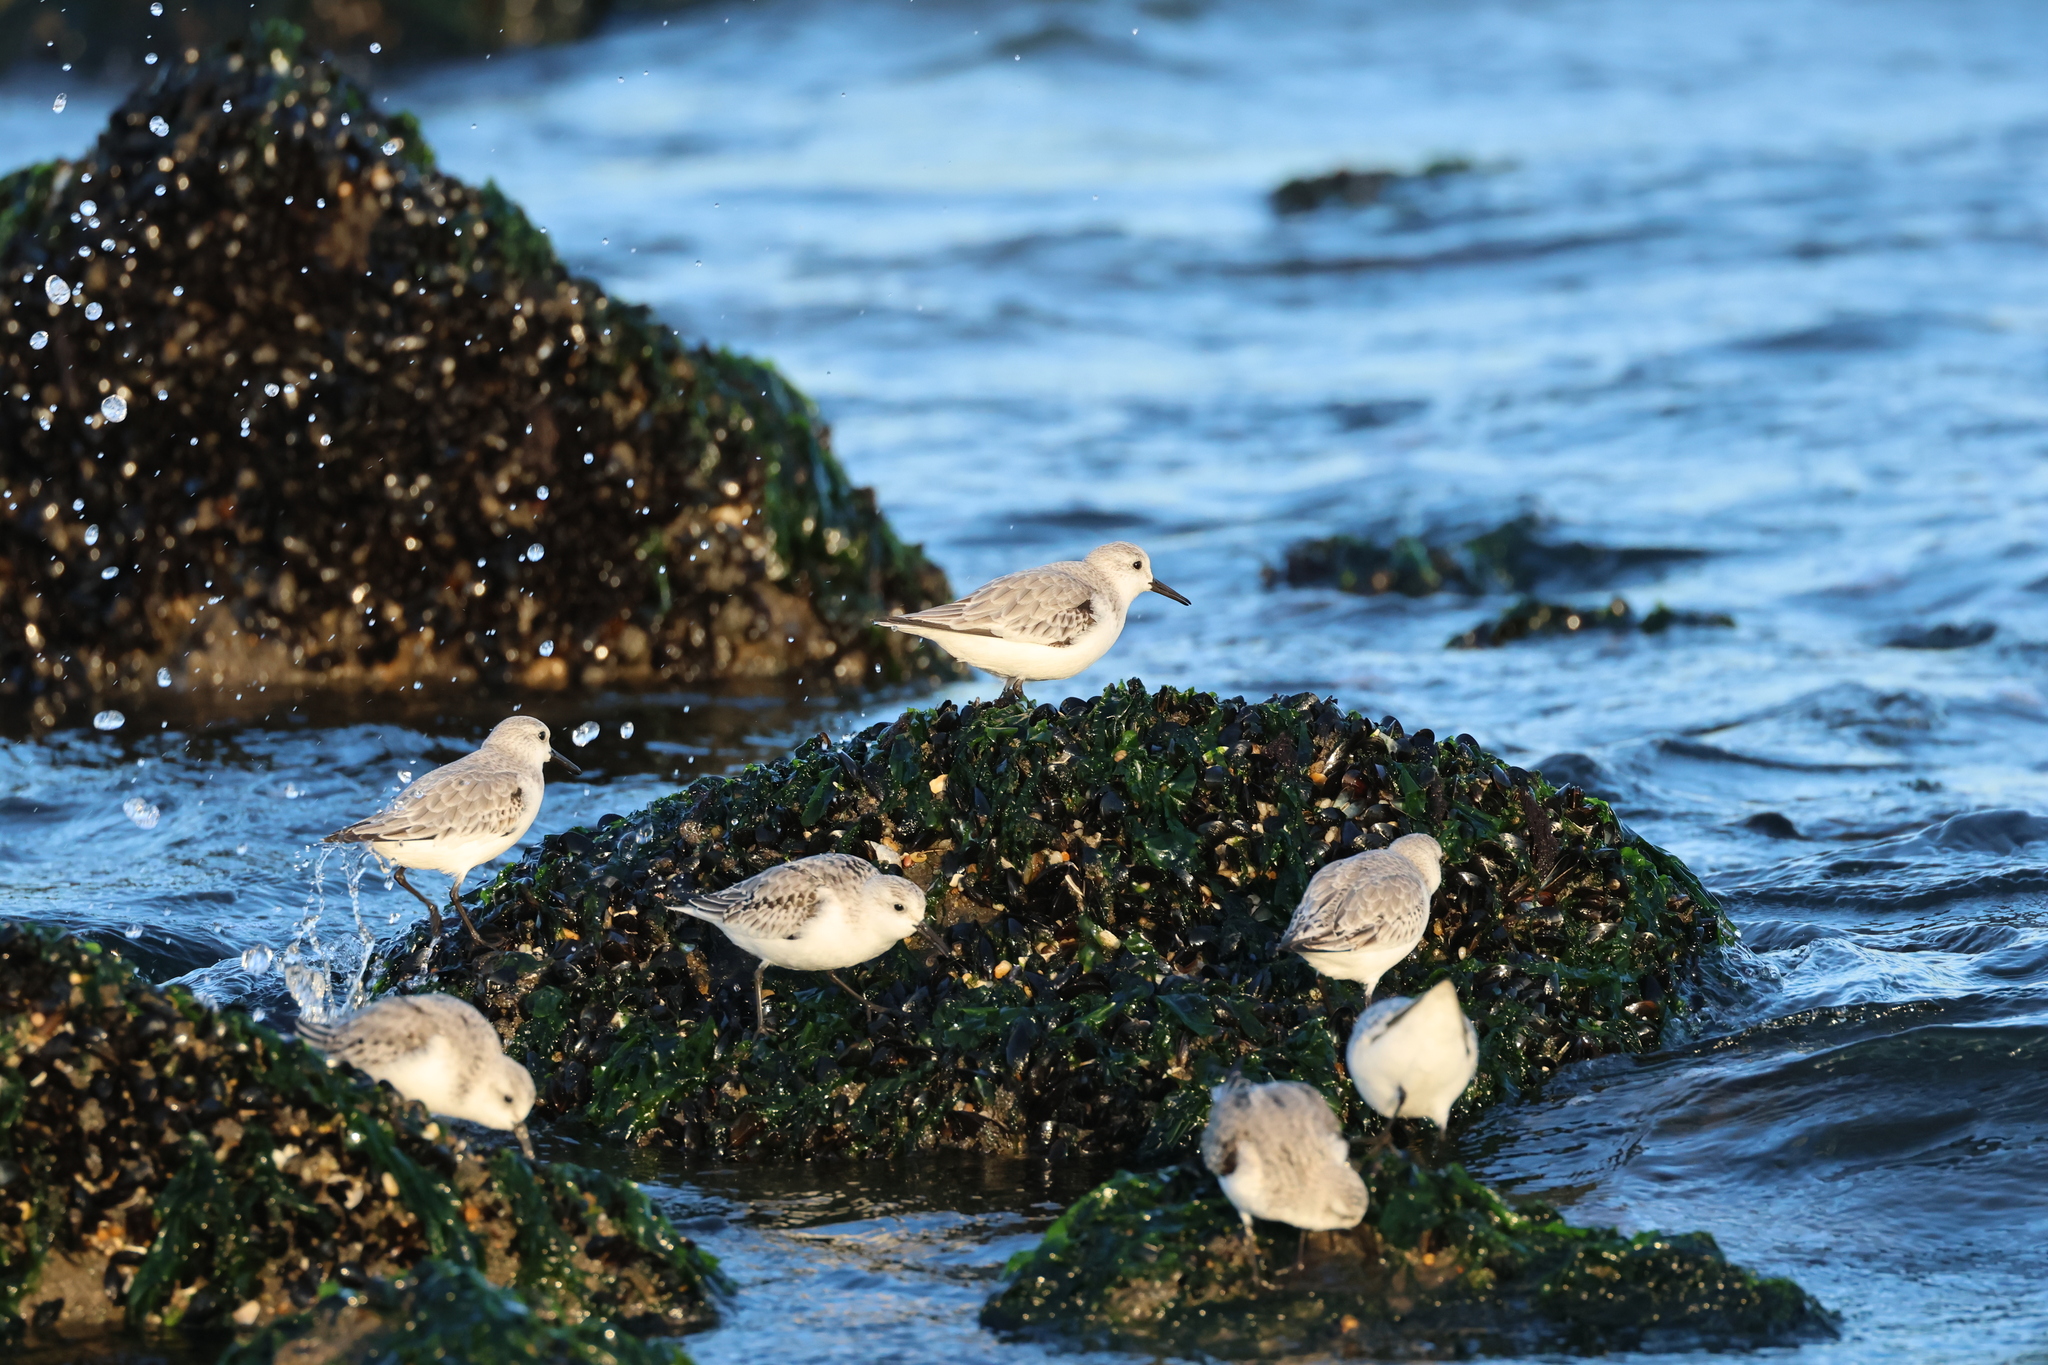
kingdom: Animalia
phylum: Chordata
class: Aves
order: Charadriiformes
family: Scolopacidae
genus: Calidris
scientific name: Calidris alba
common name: Sanderling
